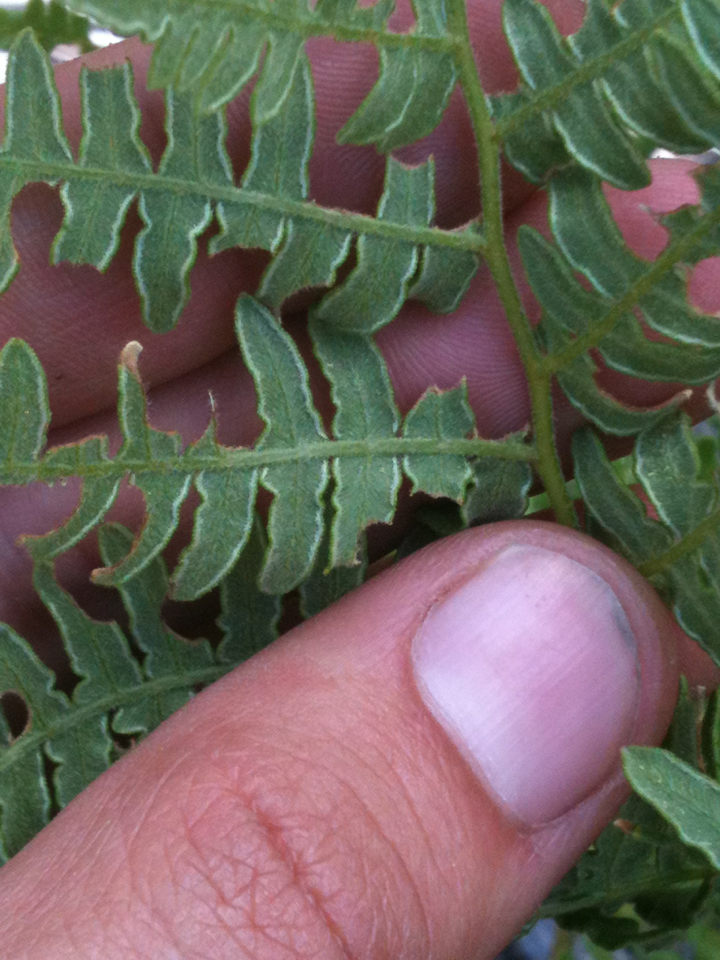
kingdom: Plantae
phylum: Tracheophyta
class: Polypodiopsida
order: Polypodiales
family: Dennstaedtiaceae
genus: Pteridium
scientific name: Pteridium aquilinum
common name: Bracken
